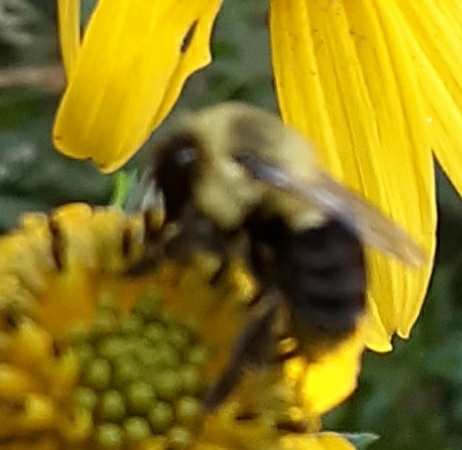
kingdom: Animalia
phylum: Arthropoda
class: Insecta
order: Hymenoptera
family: Apidae
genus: Bombus
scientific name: Bombus impatiens
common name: Common eastern bumble bee
